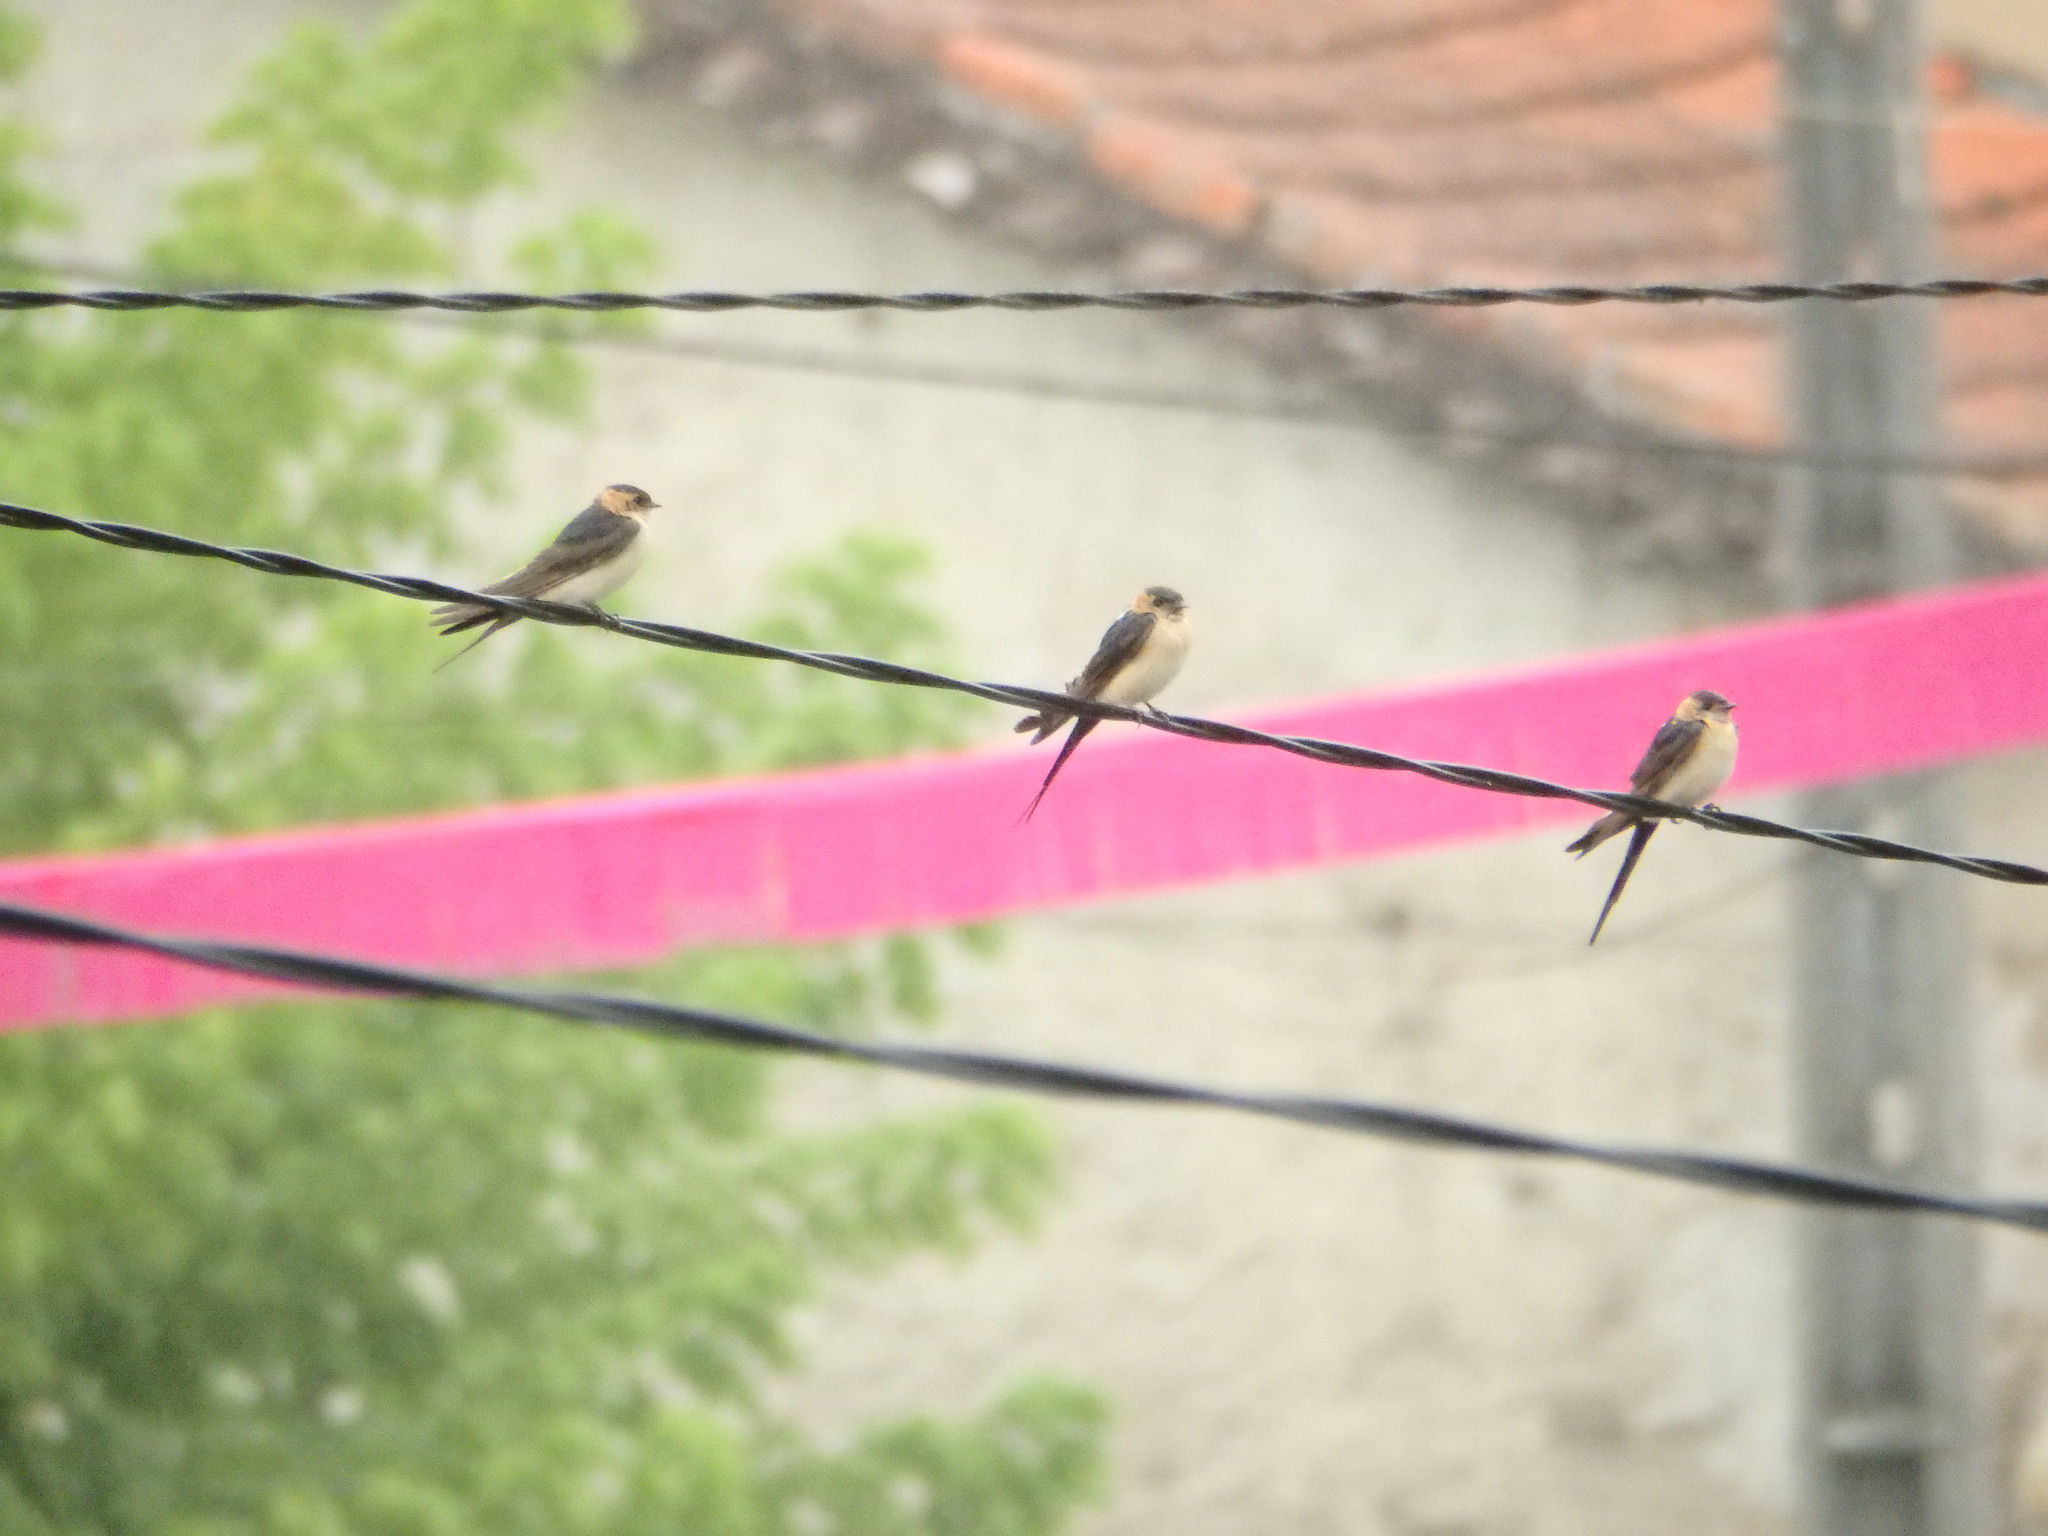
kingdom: Animalia
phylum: Chordata
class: Aves
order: Passeriformes
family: Hirundinidae
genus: Cecropis
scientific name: Cecropis daurica
